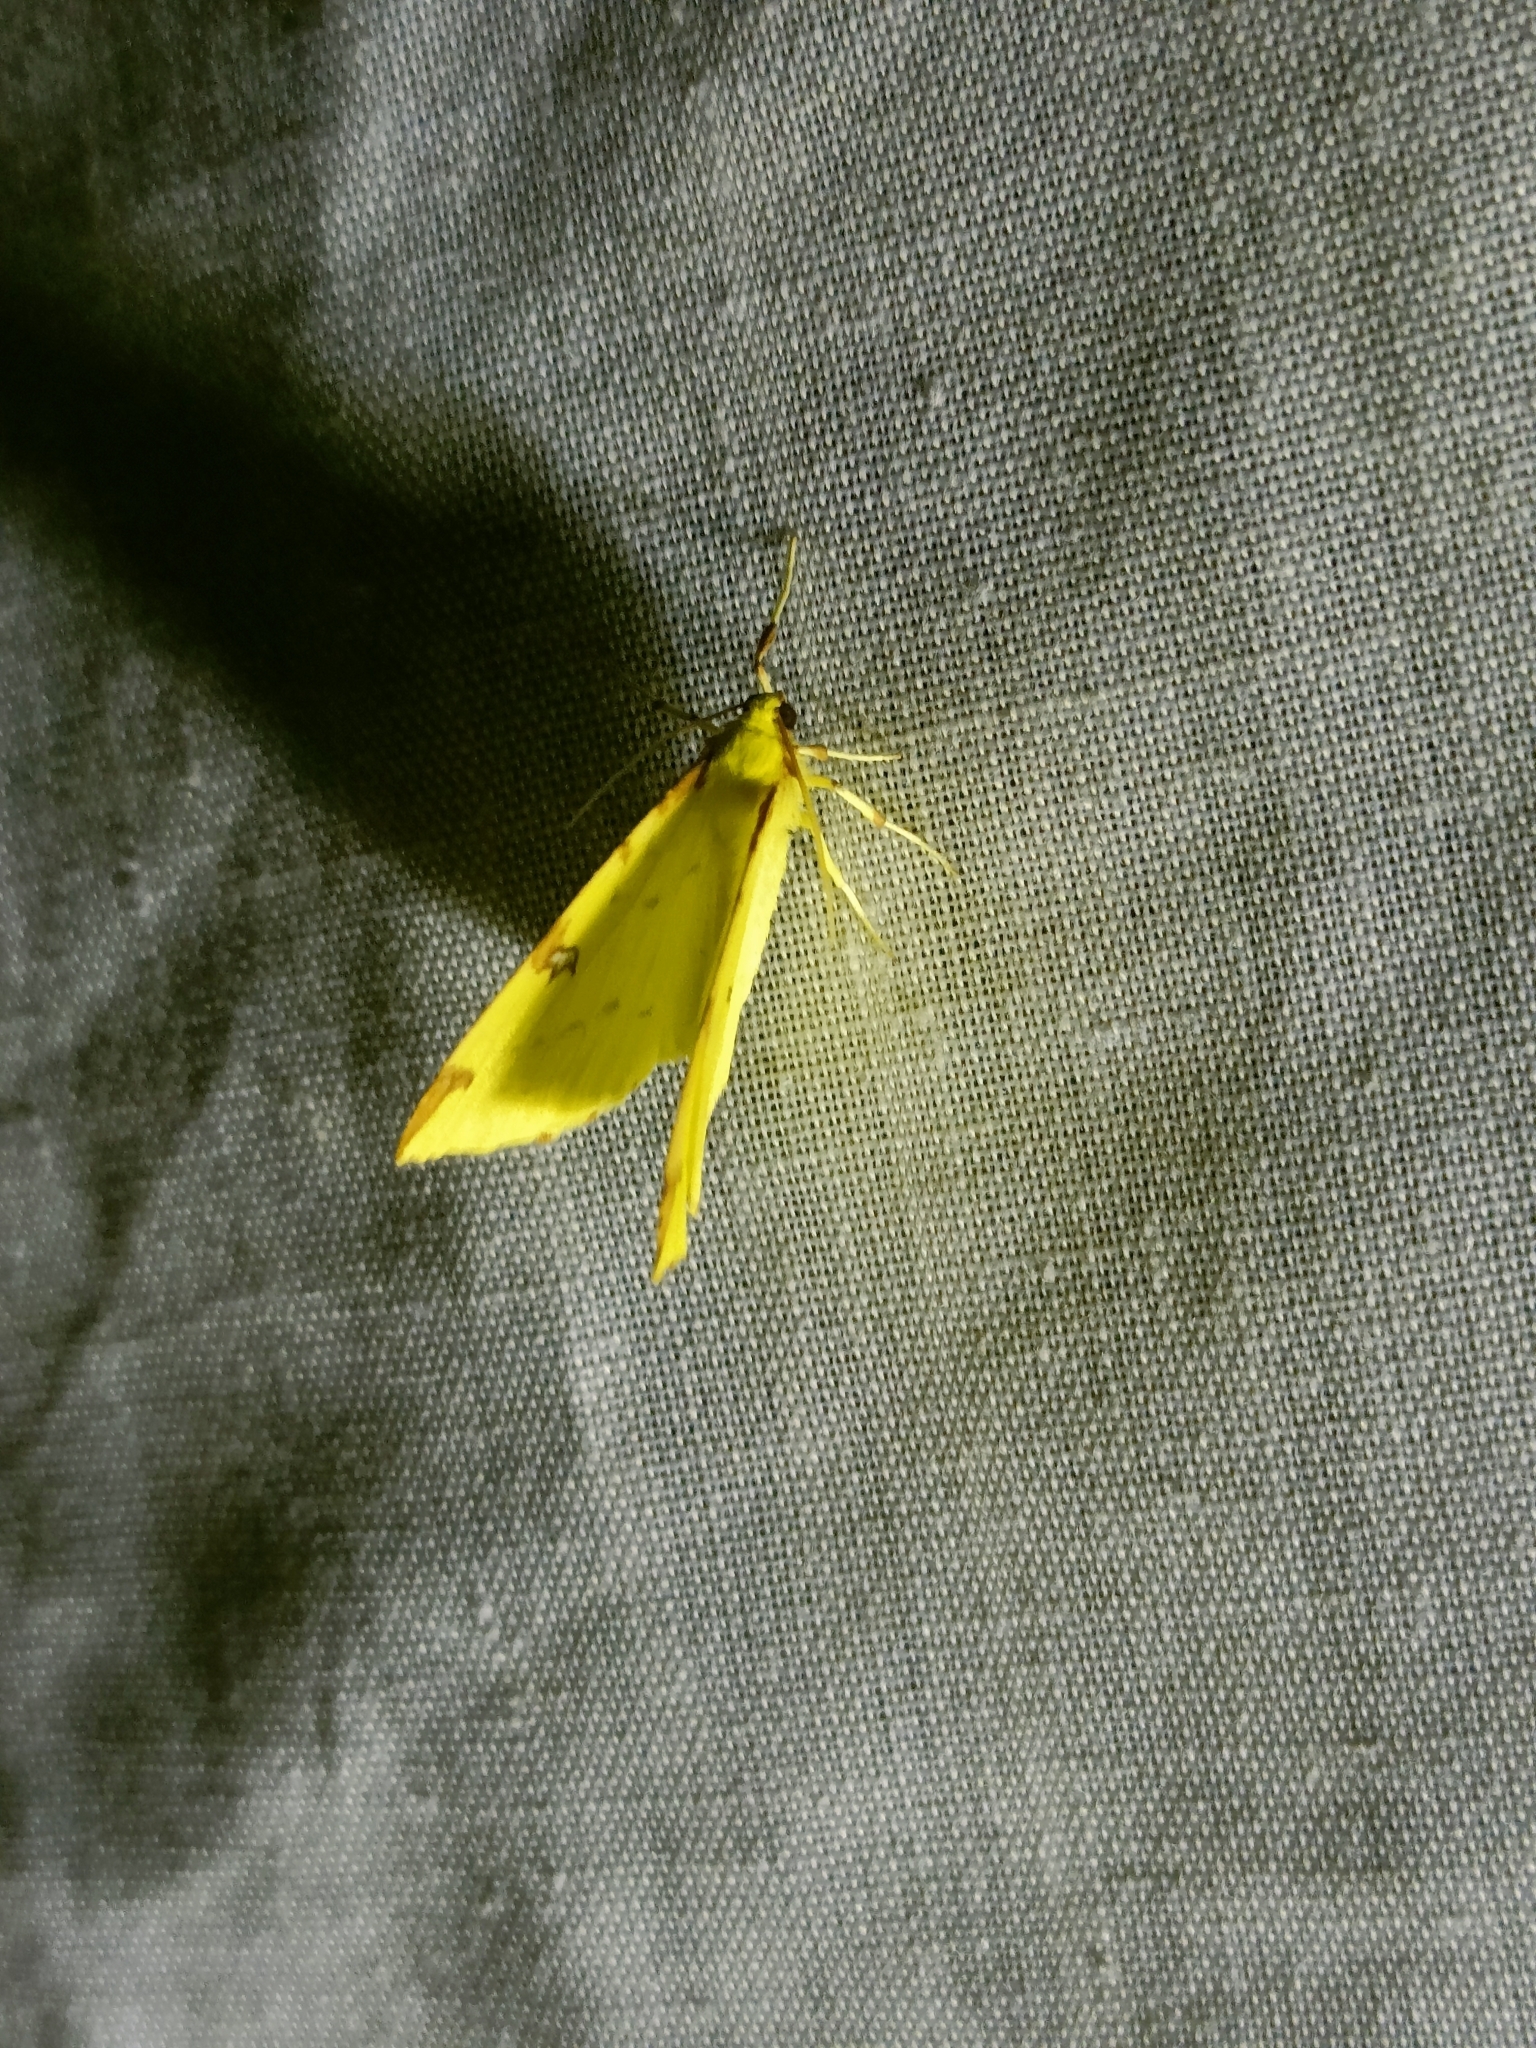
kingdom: Animalia
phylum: Arthropoda
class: Insecta
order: Lepidoptera
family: Geometridae
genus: Opisthograptis
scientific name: Opisthograptis luteolata
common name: Brimstone moth
